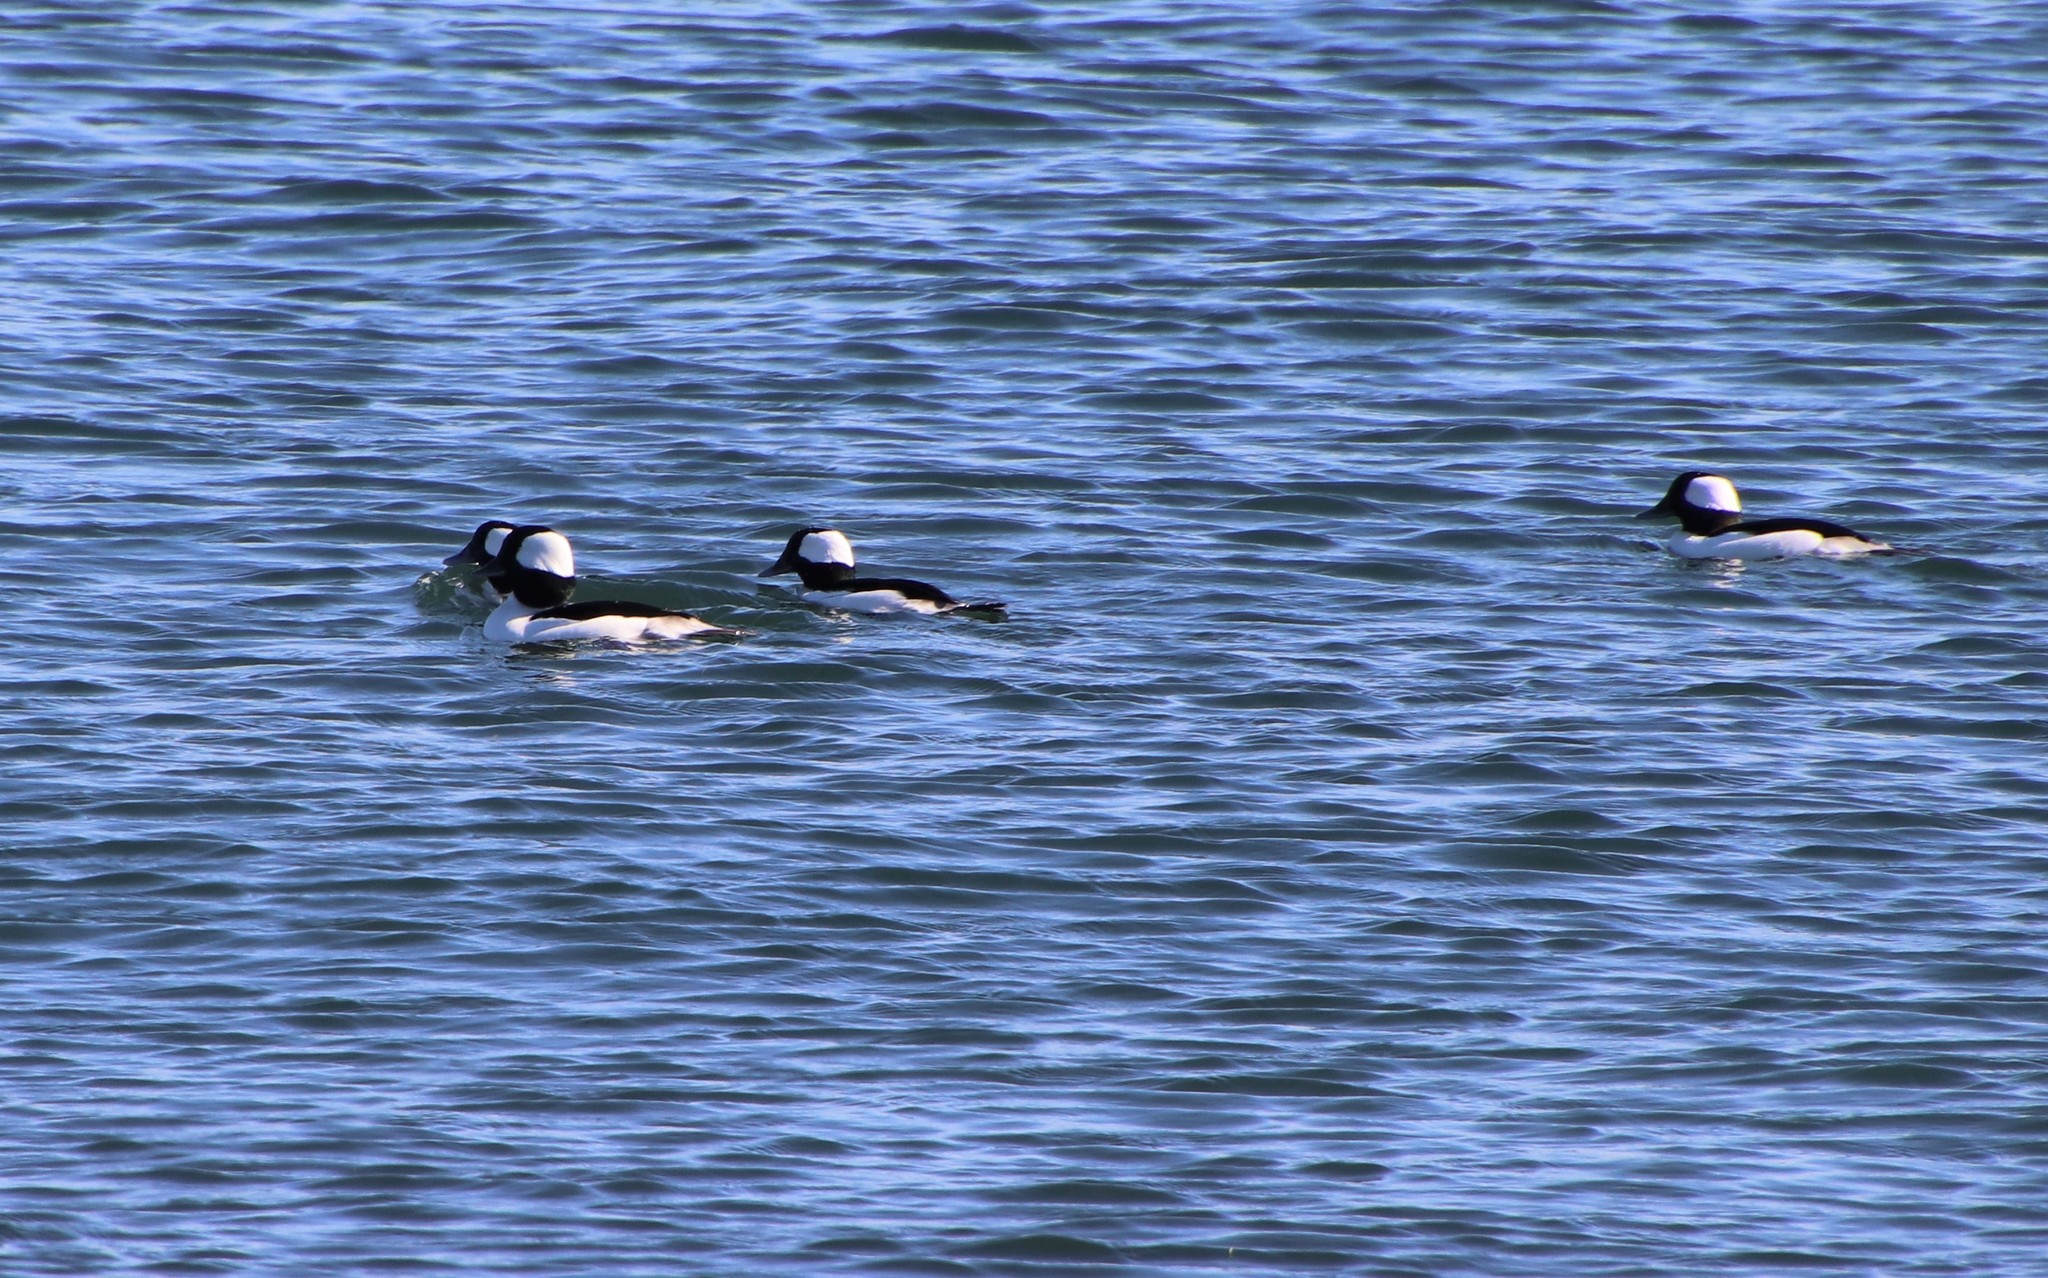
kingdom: Animalia
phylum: Chordata
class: Aves
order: Anseriformes
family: Anatidae
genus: Bucephala
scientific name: Bucephala albeola
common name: Bufflehead
